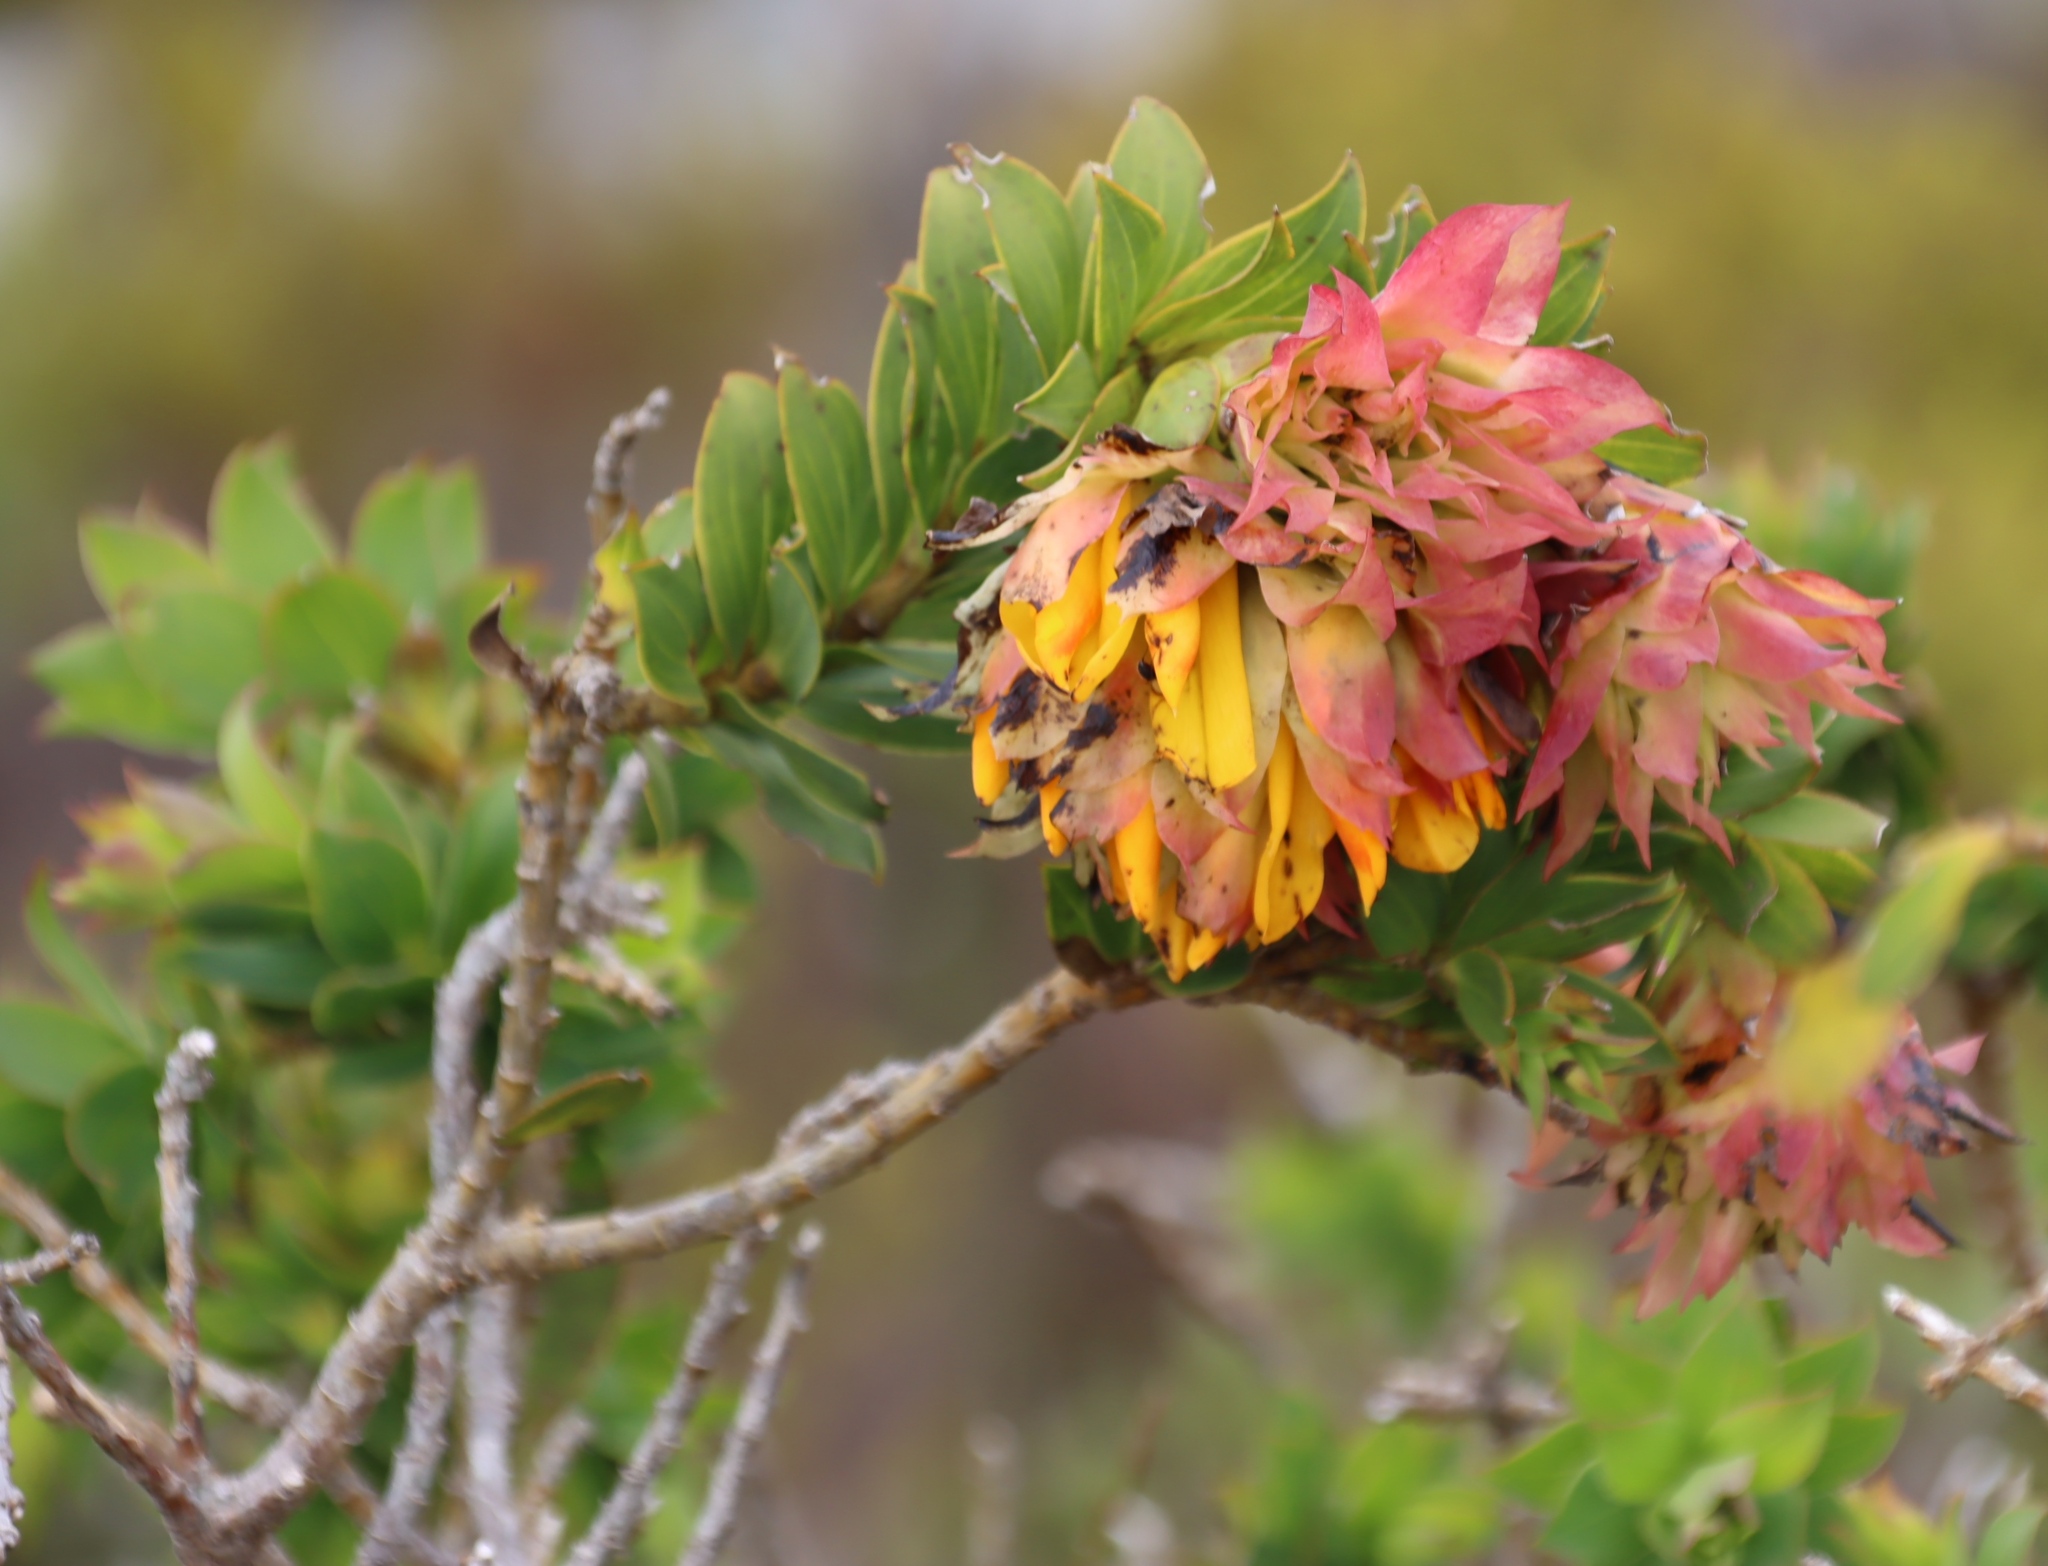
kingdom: Plantae
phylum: Tracheophyta
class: Magnoliopsida
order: Fabales
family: Fabaceae
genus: Liparia
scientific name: Liparia splendens
